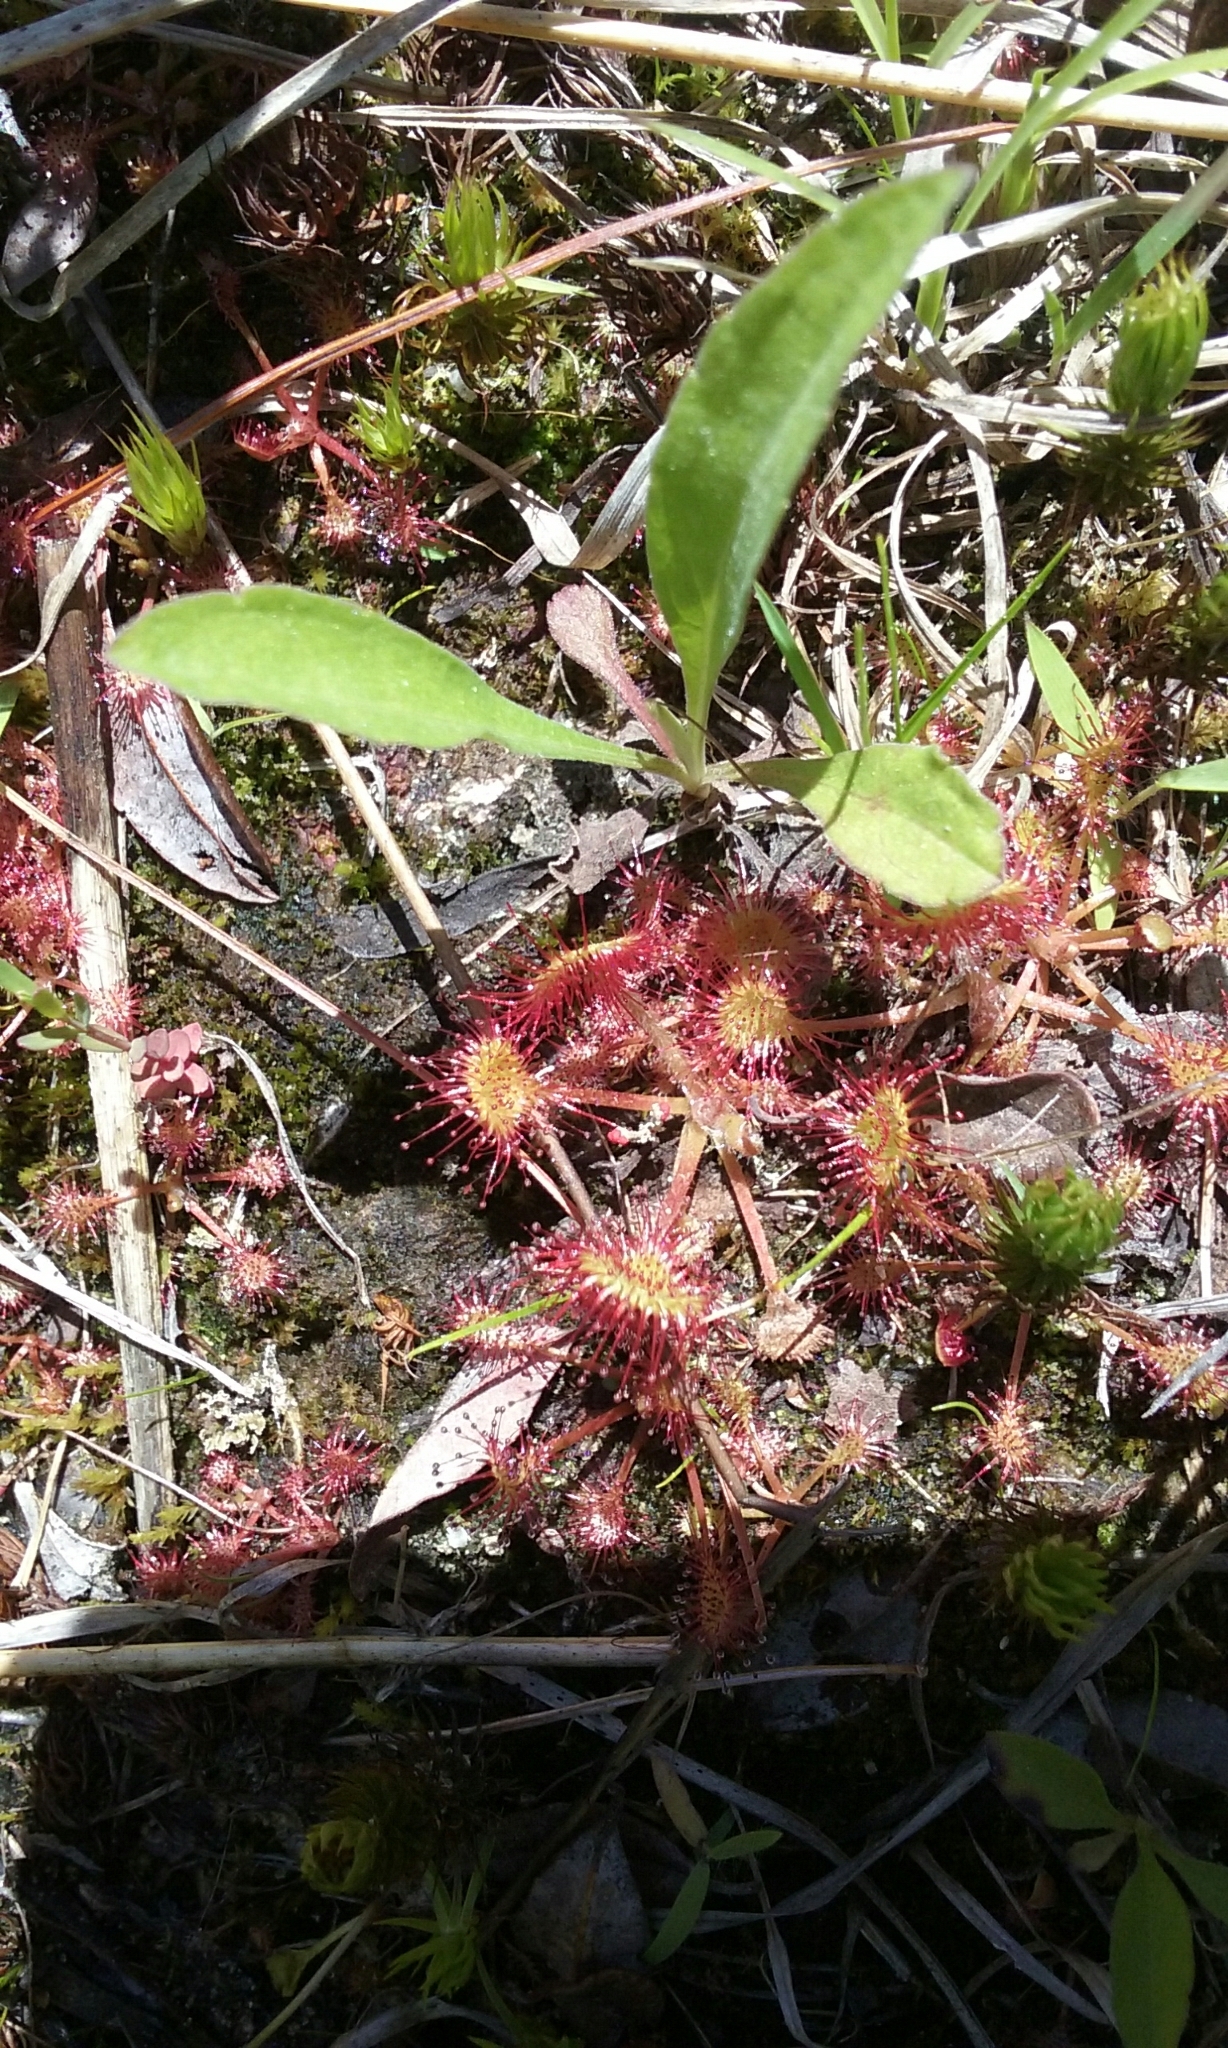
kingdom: Plantae
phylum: Tracheophyta
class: Magnoliopsida
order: Caryophyllales
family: Droseraceae
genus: Drosera
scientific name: Drosera rotundifolia
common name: Round-leaved sundew
